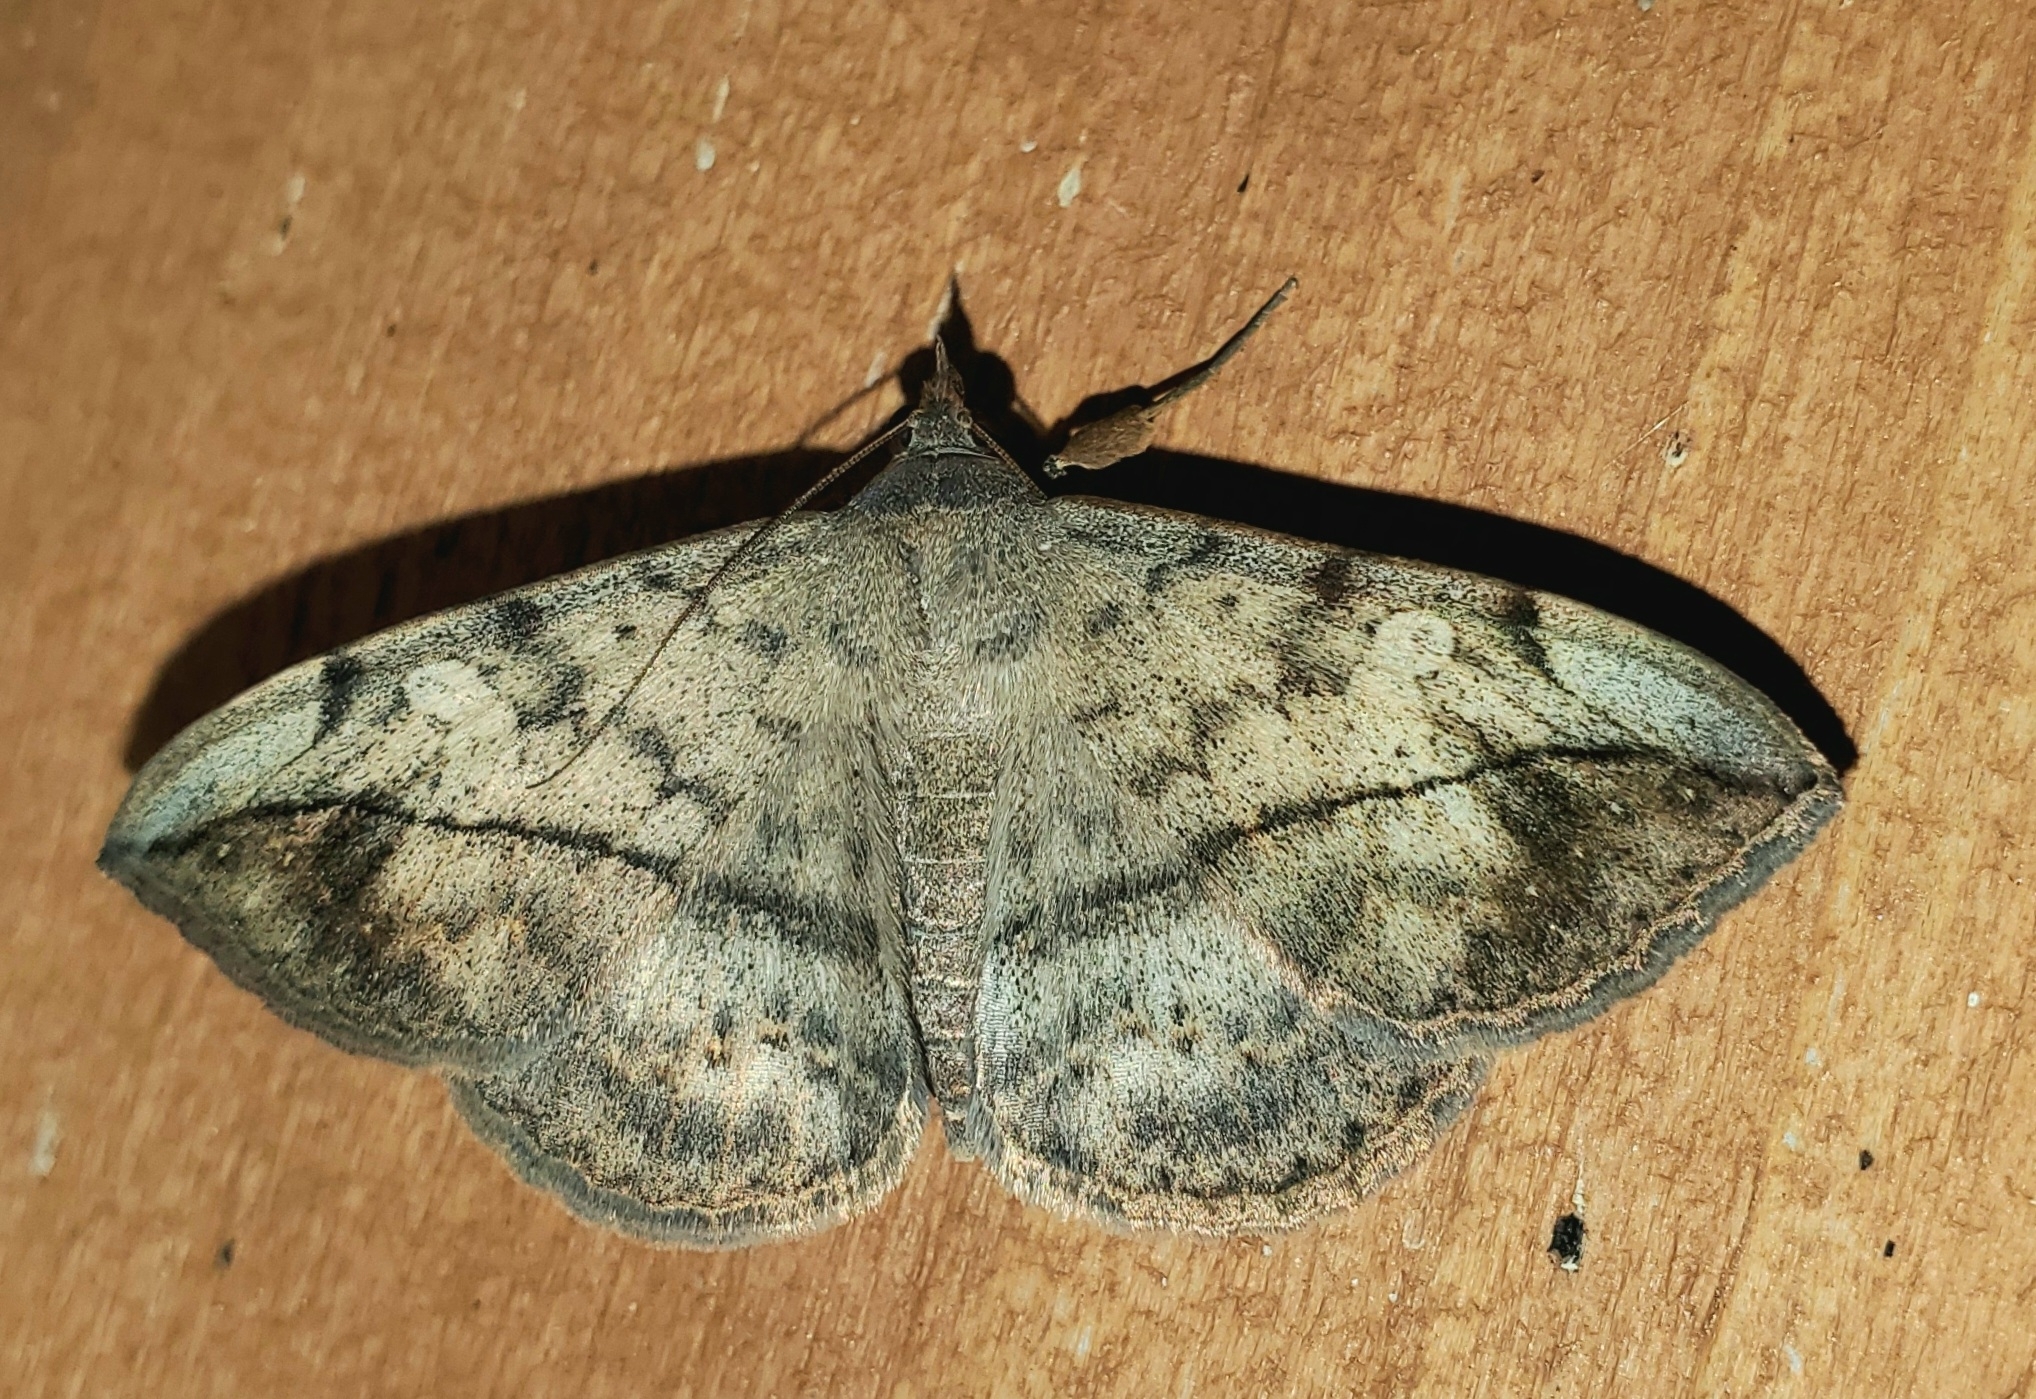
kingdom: Animalia
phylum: Arthropoda
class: Insecta
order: Lepidoptera
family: Erebidae
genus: Anticarsia
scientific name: Anticarsia gemmatalis
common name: Cutworm moth
